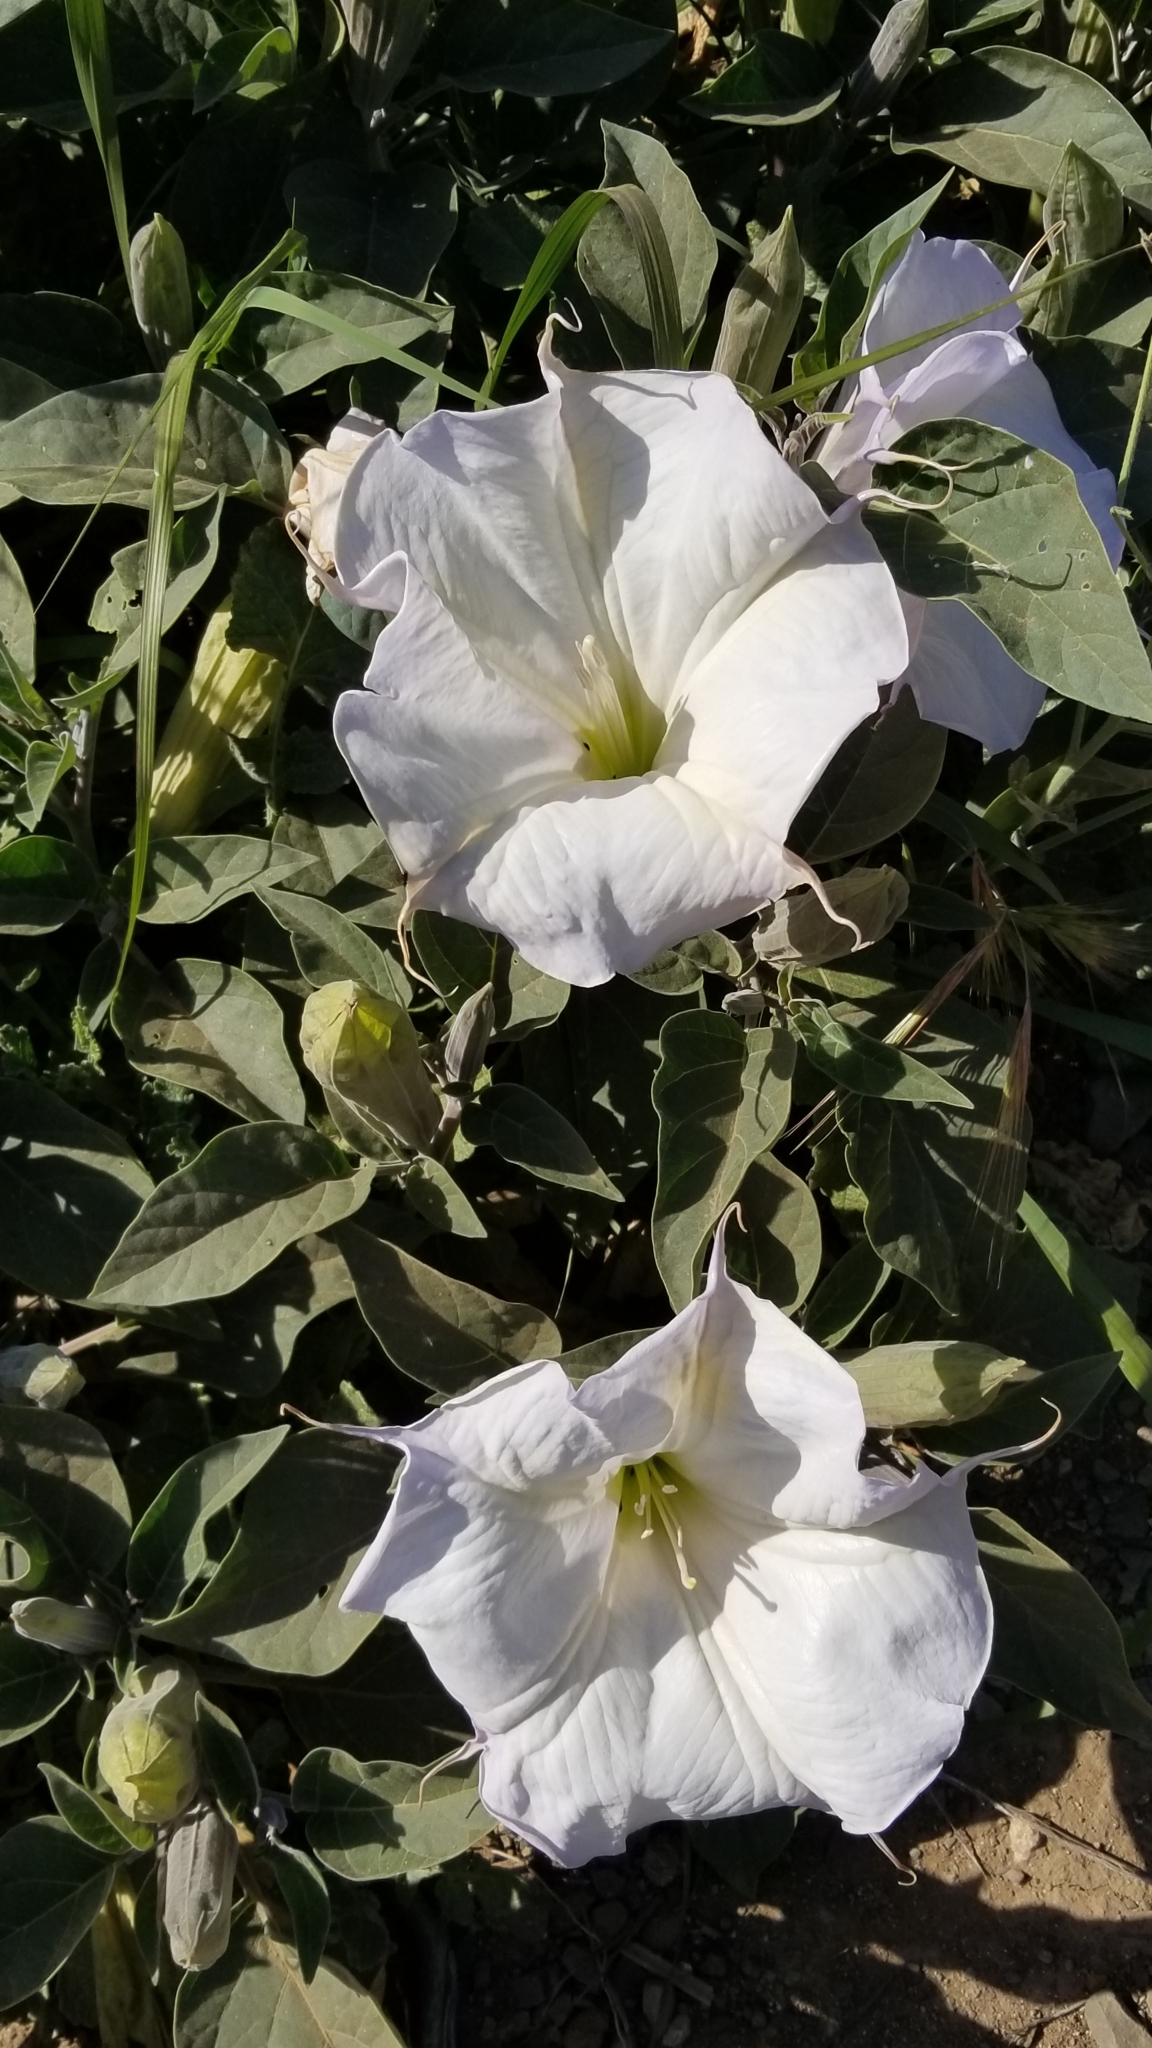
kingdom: Plantae
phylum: Tracheophyta
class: Magnoliopsida
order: Solanales
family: Solanaceae
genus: Datura
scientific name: Datura wrightii
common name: Sacred thorn-apple
